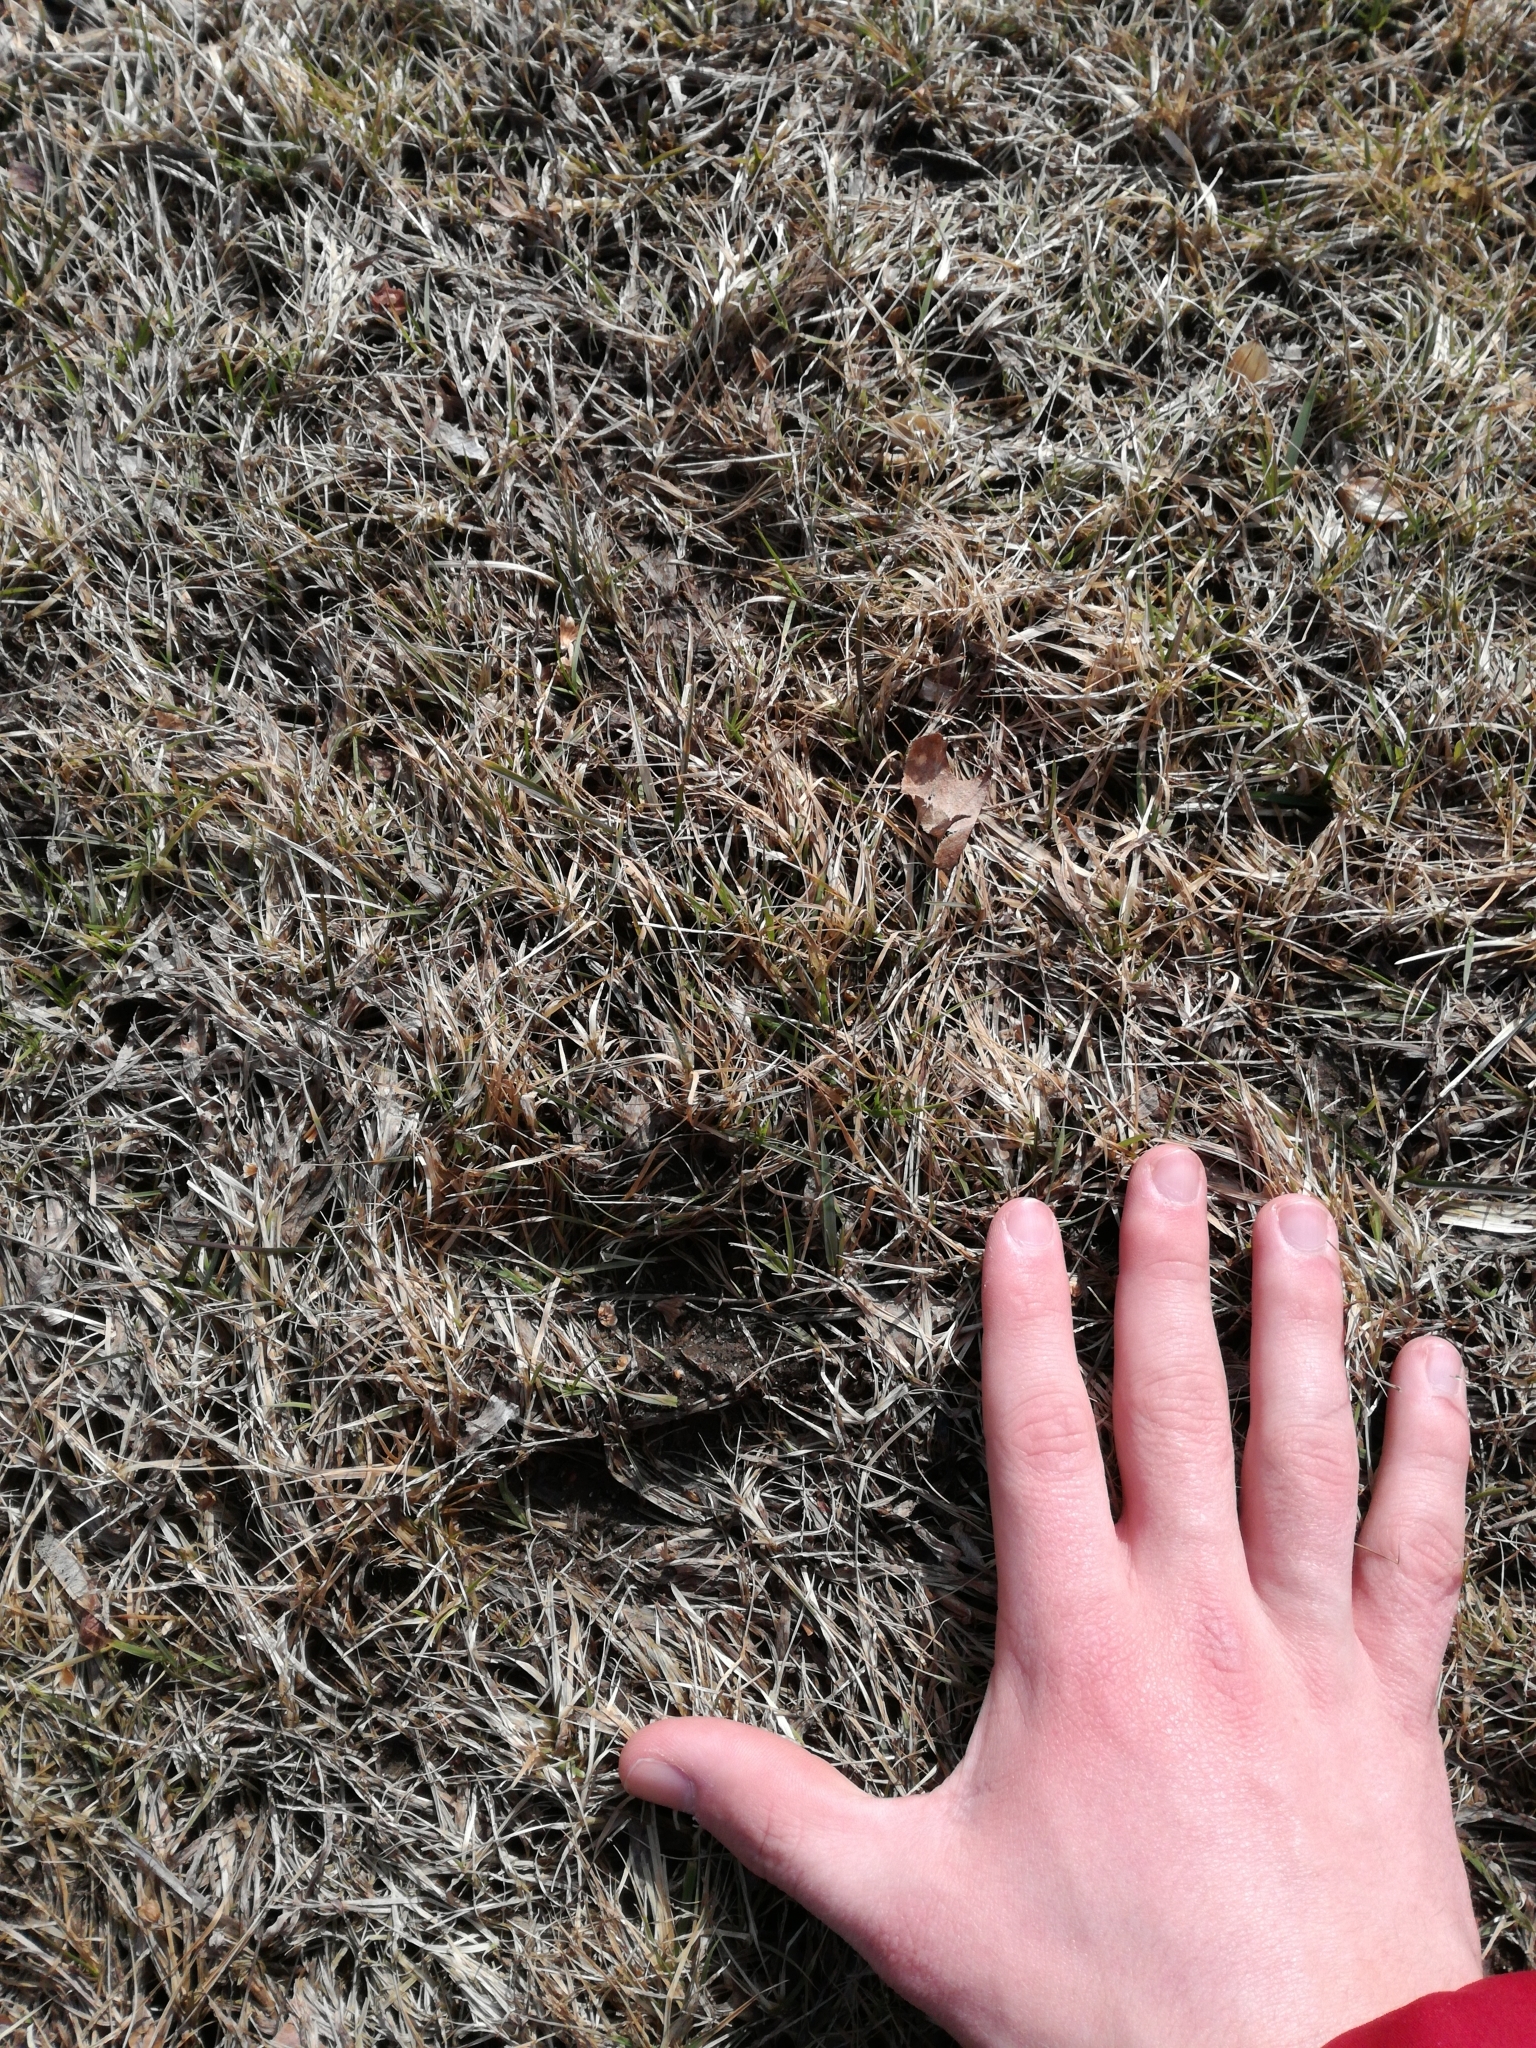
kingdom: Animalia
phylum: Chordata
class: Mammalia
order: Artiodactyla
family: Cervidae
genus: Odocoileus
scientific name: Odocoileus virginianus
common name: White-tailed deer
